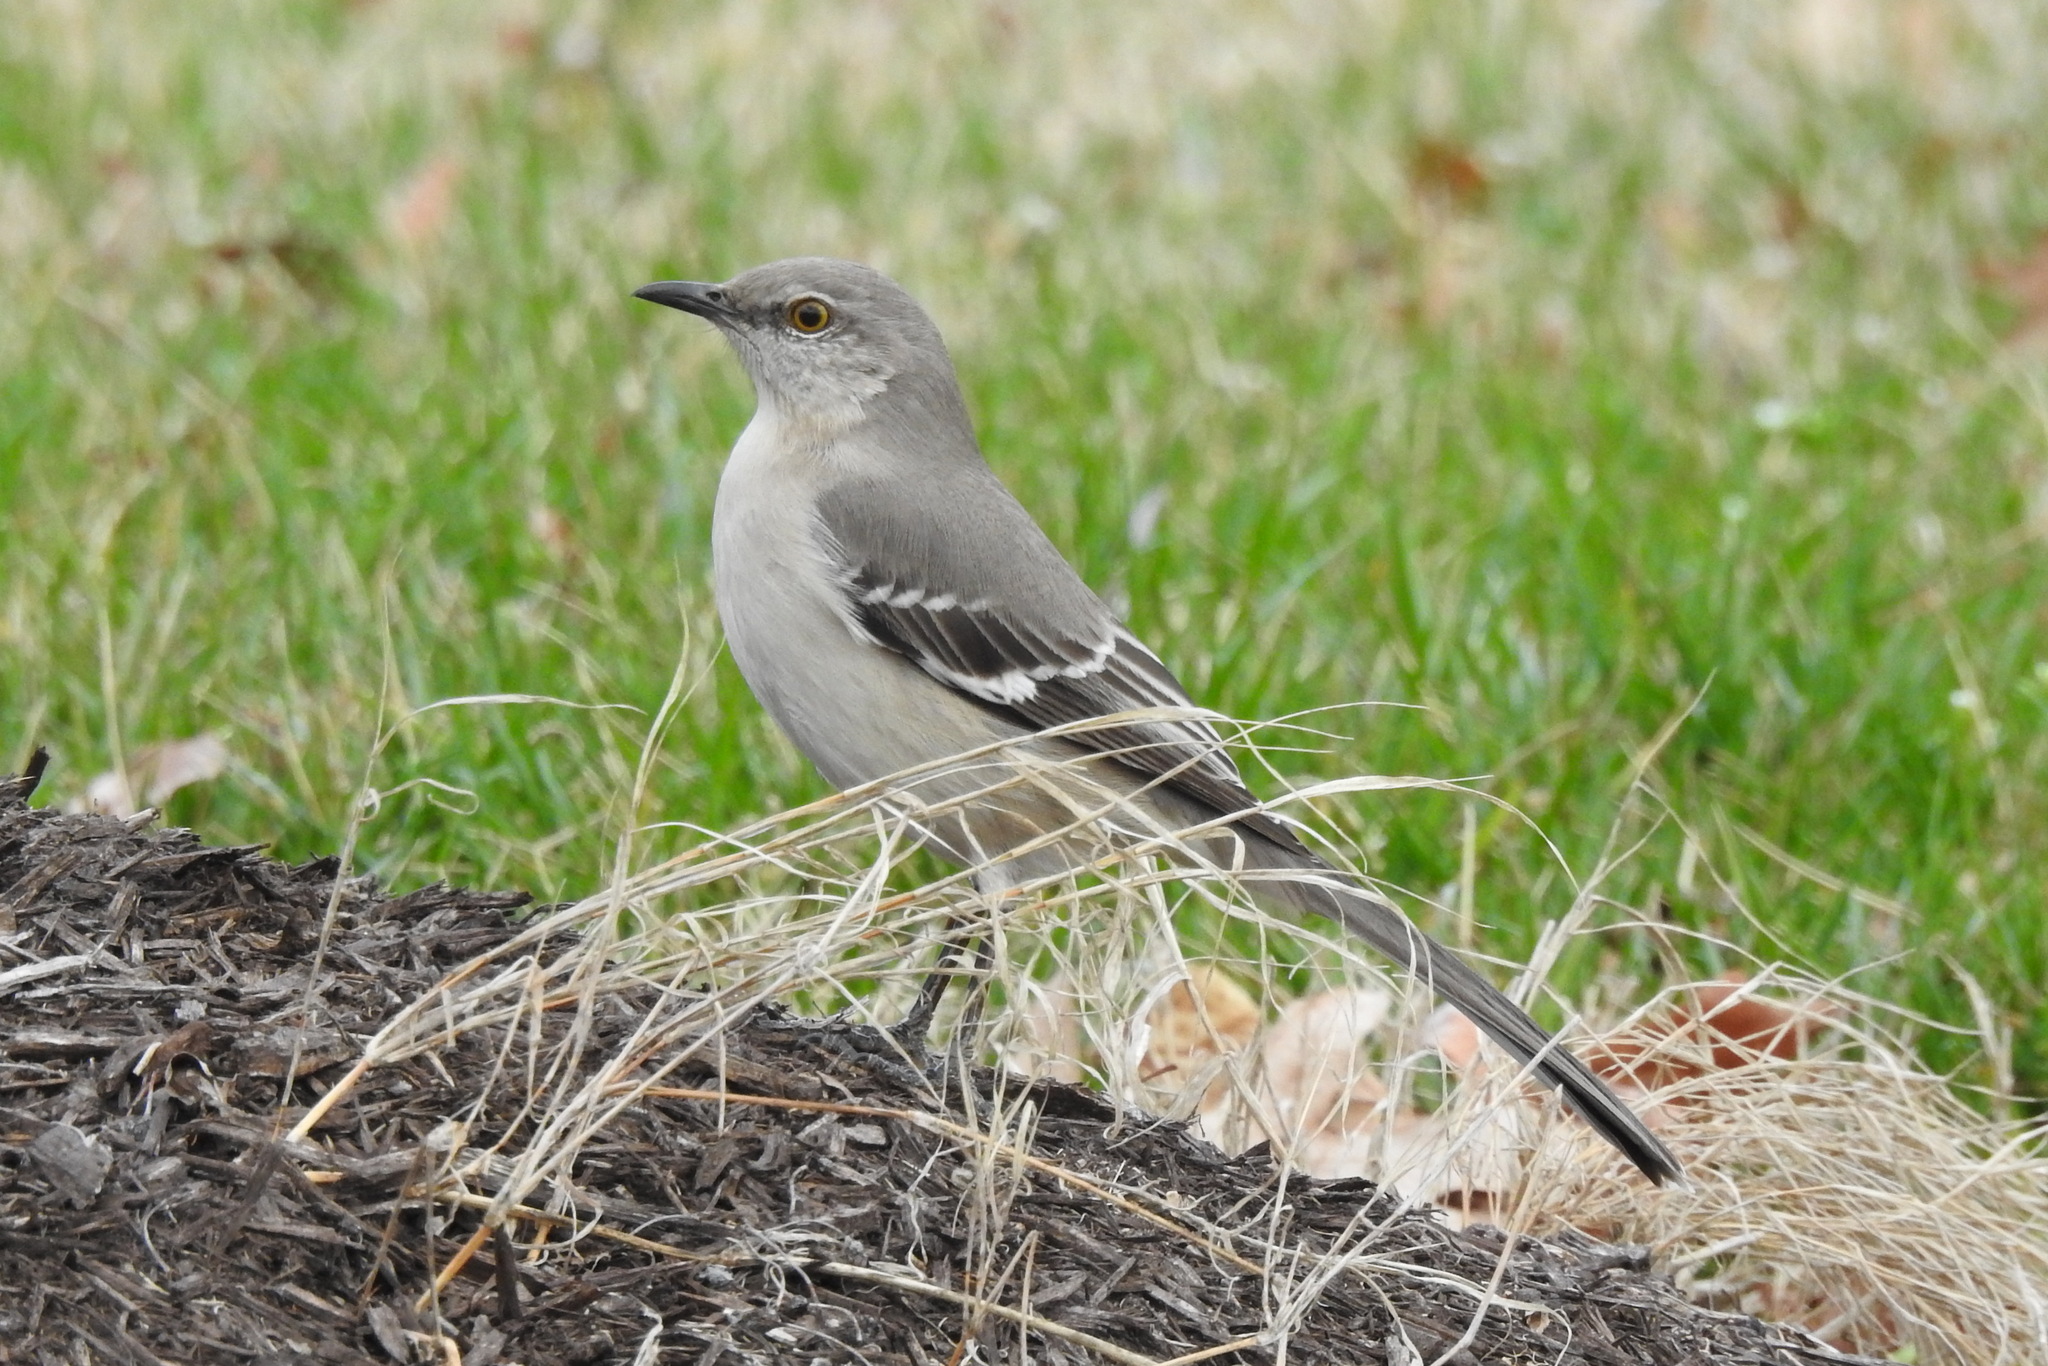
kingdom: Animalia
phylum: Chordata
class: Aves
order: Passeriformes
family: Mimidae
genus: Mimus
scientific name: Mimus polyglottos
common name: Northern mockingbird
